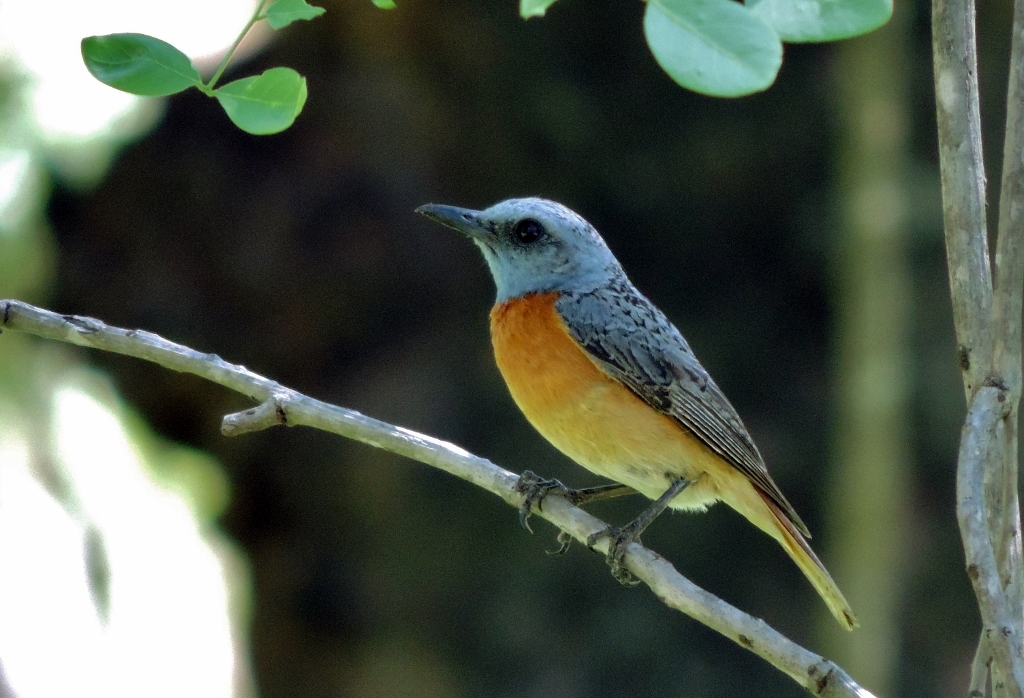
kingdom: Animalia
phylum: Chordata
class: Aves
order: Passeriformes
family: Muscicapidae
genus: Monticola
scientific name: Monticola angolensis
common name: Miombo rock thrush
